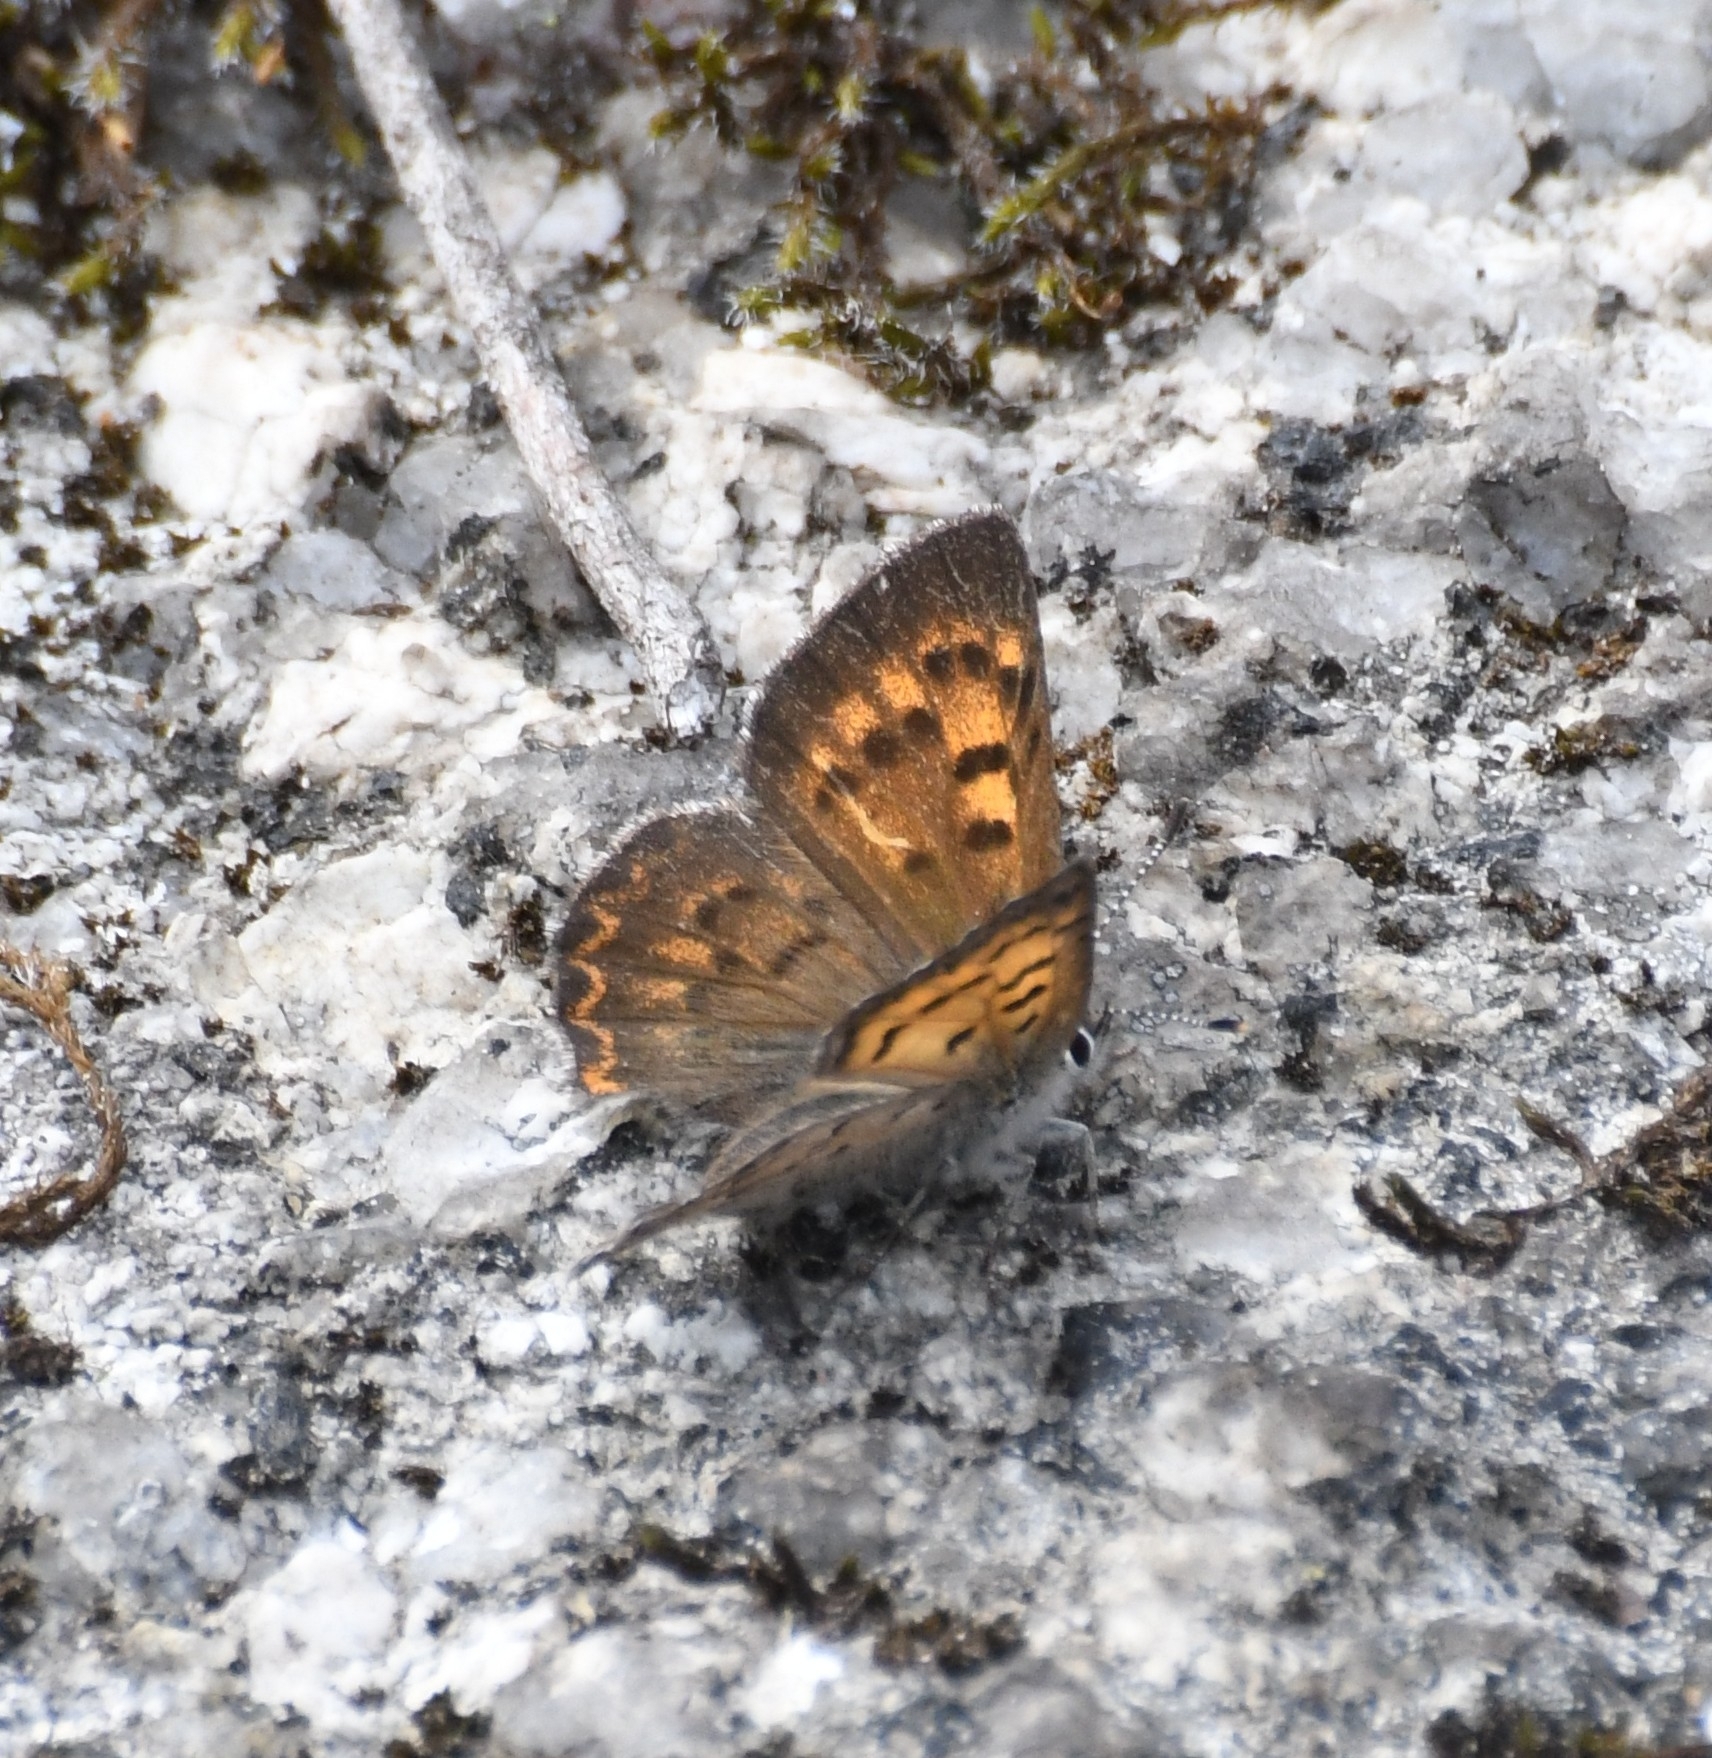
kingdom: Animalia
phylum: Arthropoda
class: Insecta
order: Lepidoptera
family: Lycaenidae
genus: Tharsalea
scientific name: Tharsalea mariposa
